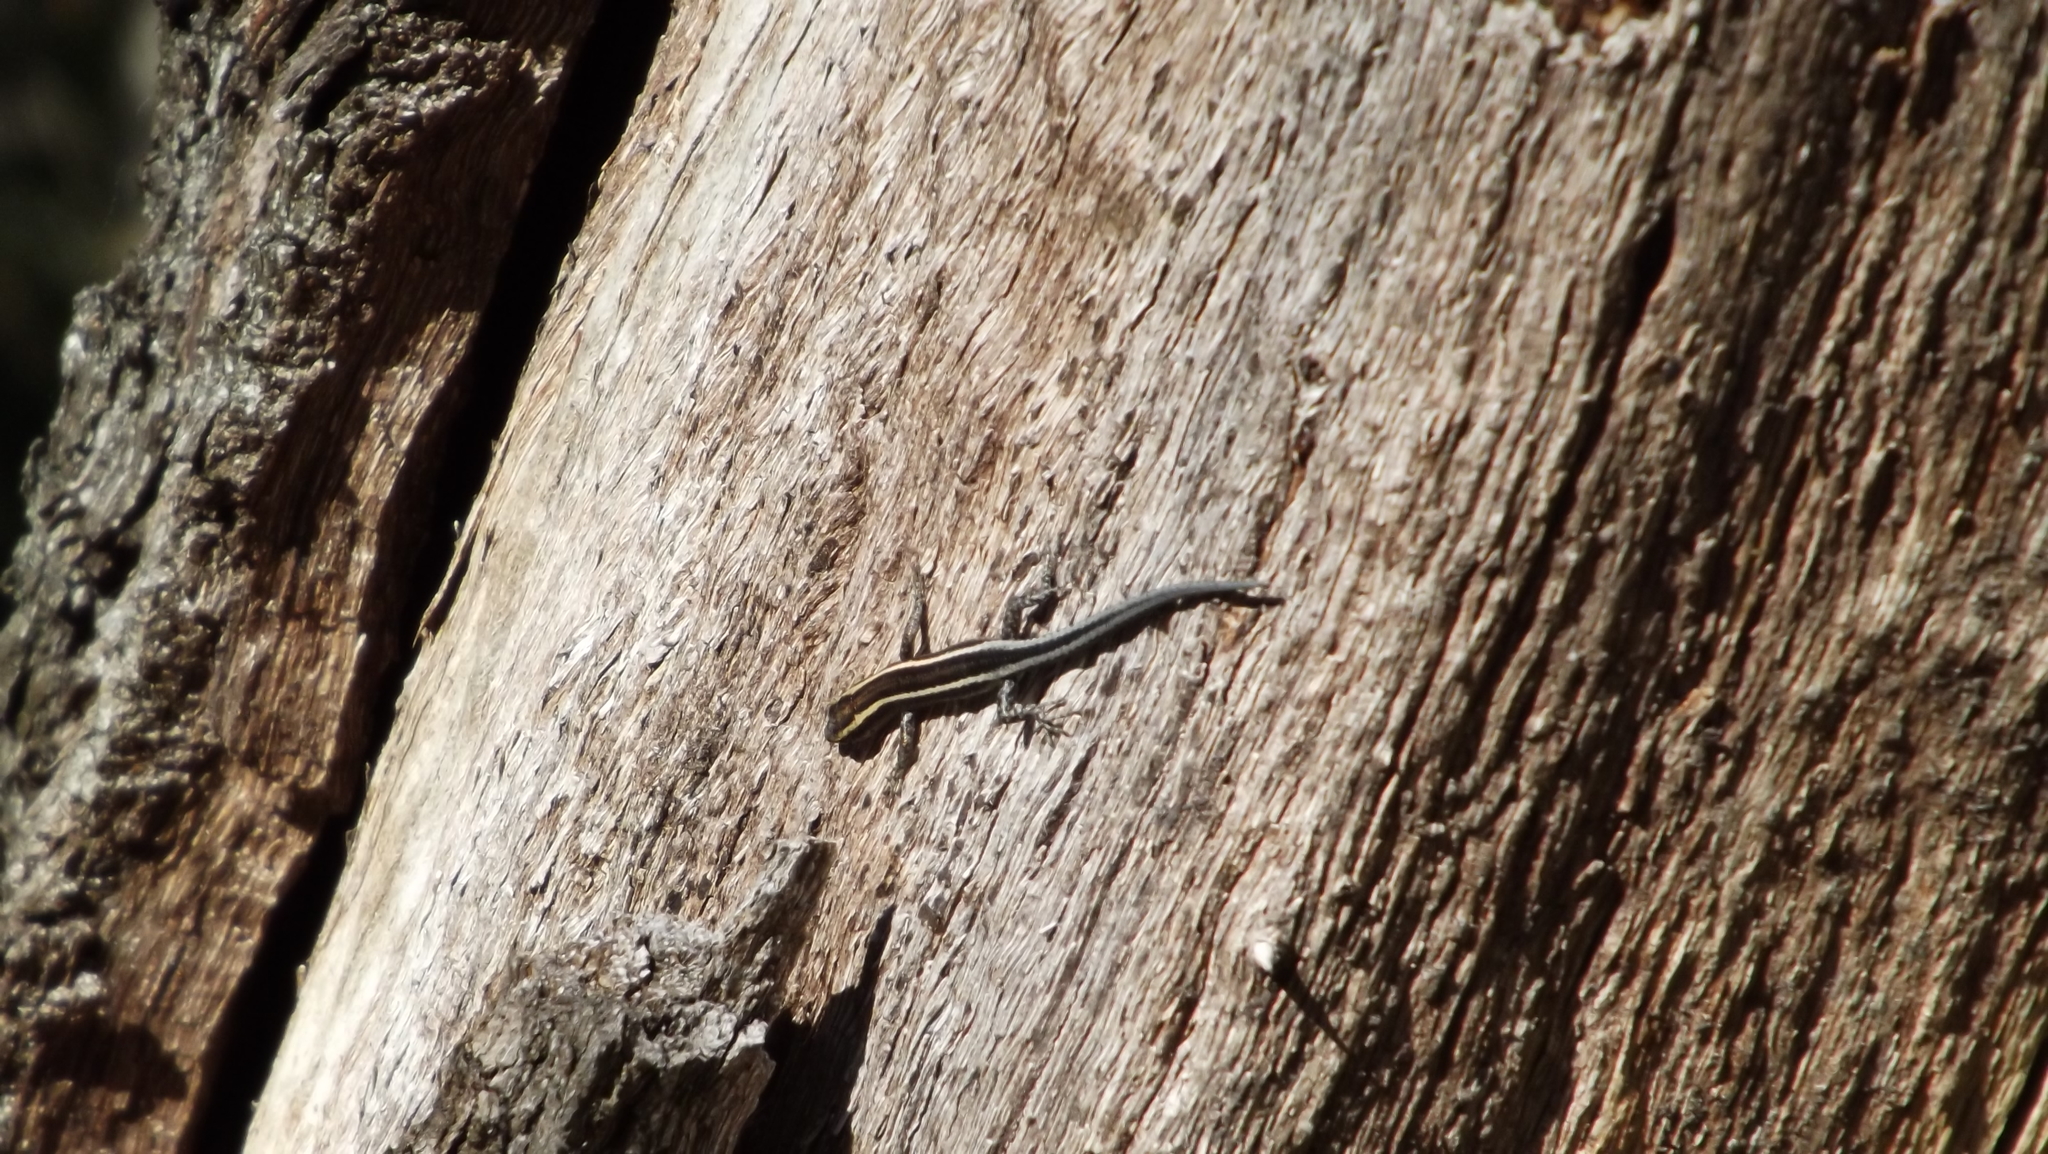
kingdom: Animalia
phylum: Chordata
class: Squamata
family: Scincidae
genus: Cryptoblepharus
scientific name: Cryptoblepharus pulcher
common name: Elegant snake-eyed skink
